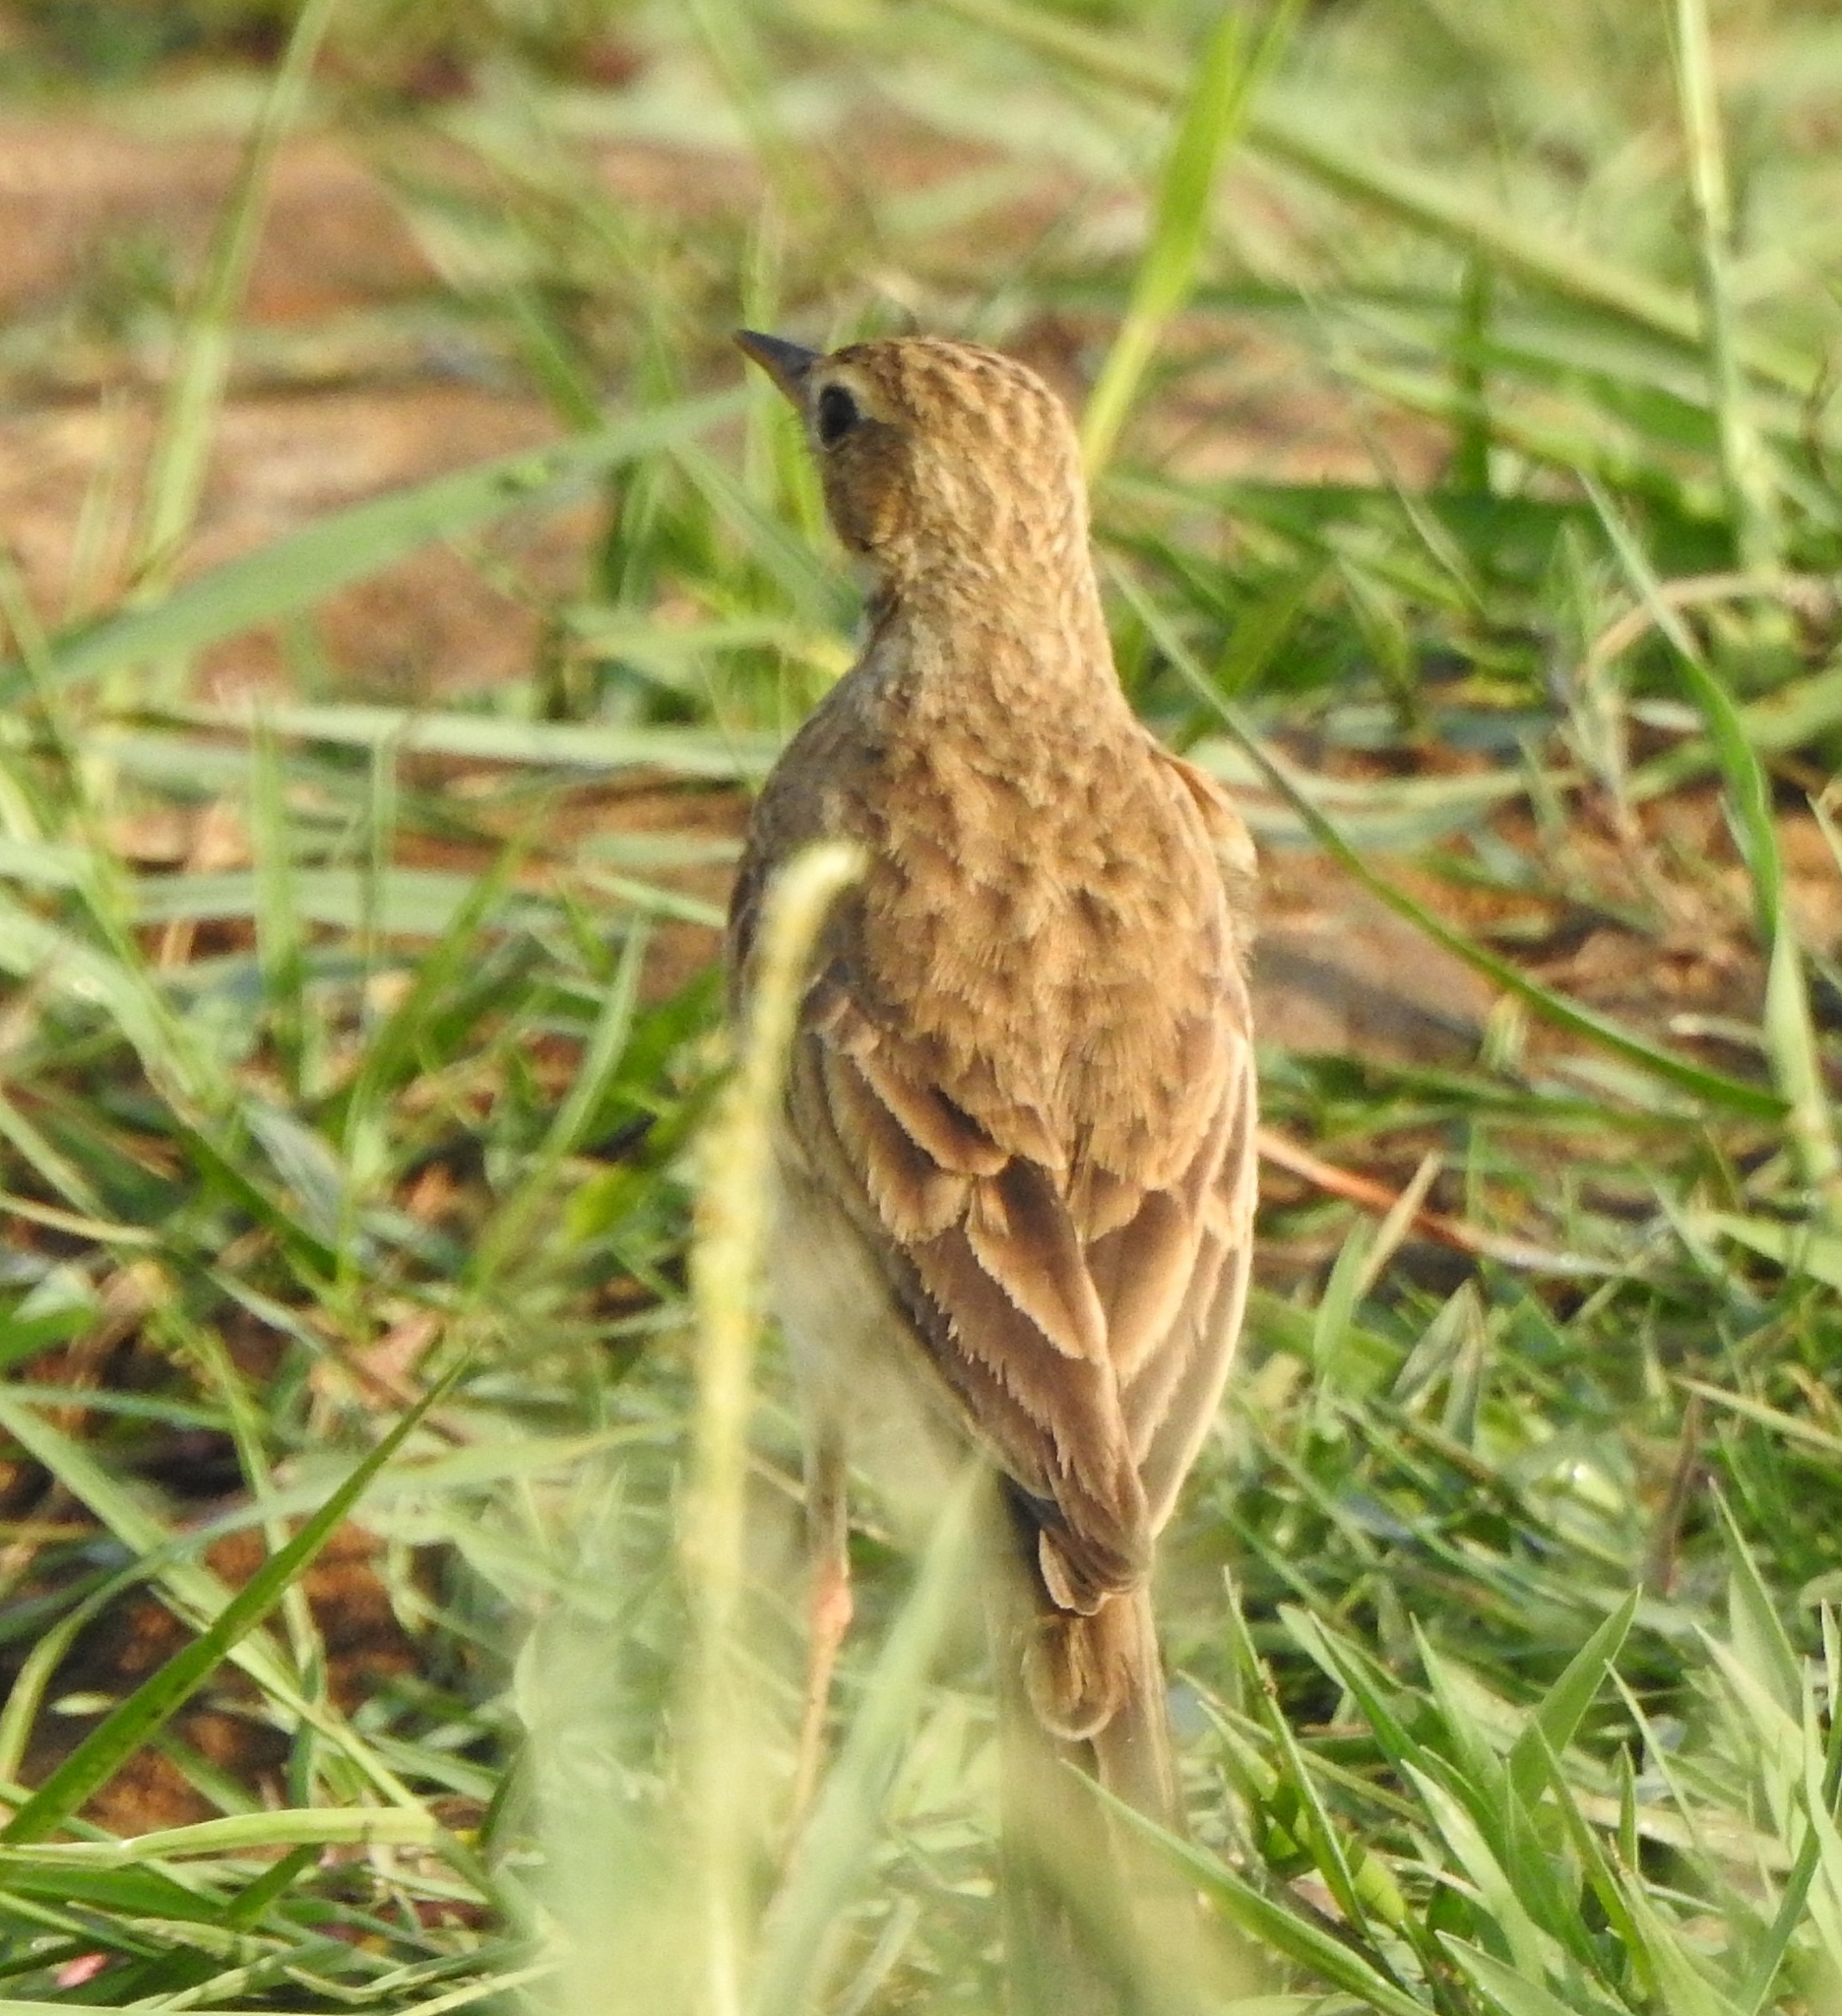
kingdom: Animalia
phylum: Chordata
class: Aves
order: Passeriformes
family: Motacillidae
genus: Anthus
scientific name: Anthus rufulus
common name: Paddyfield pipit
